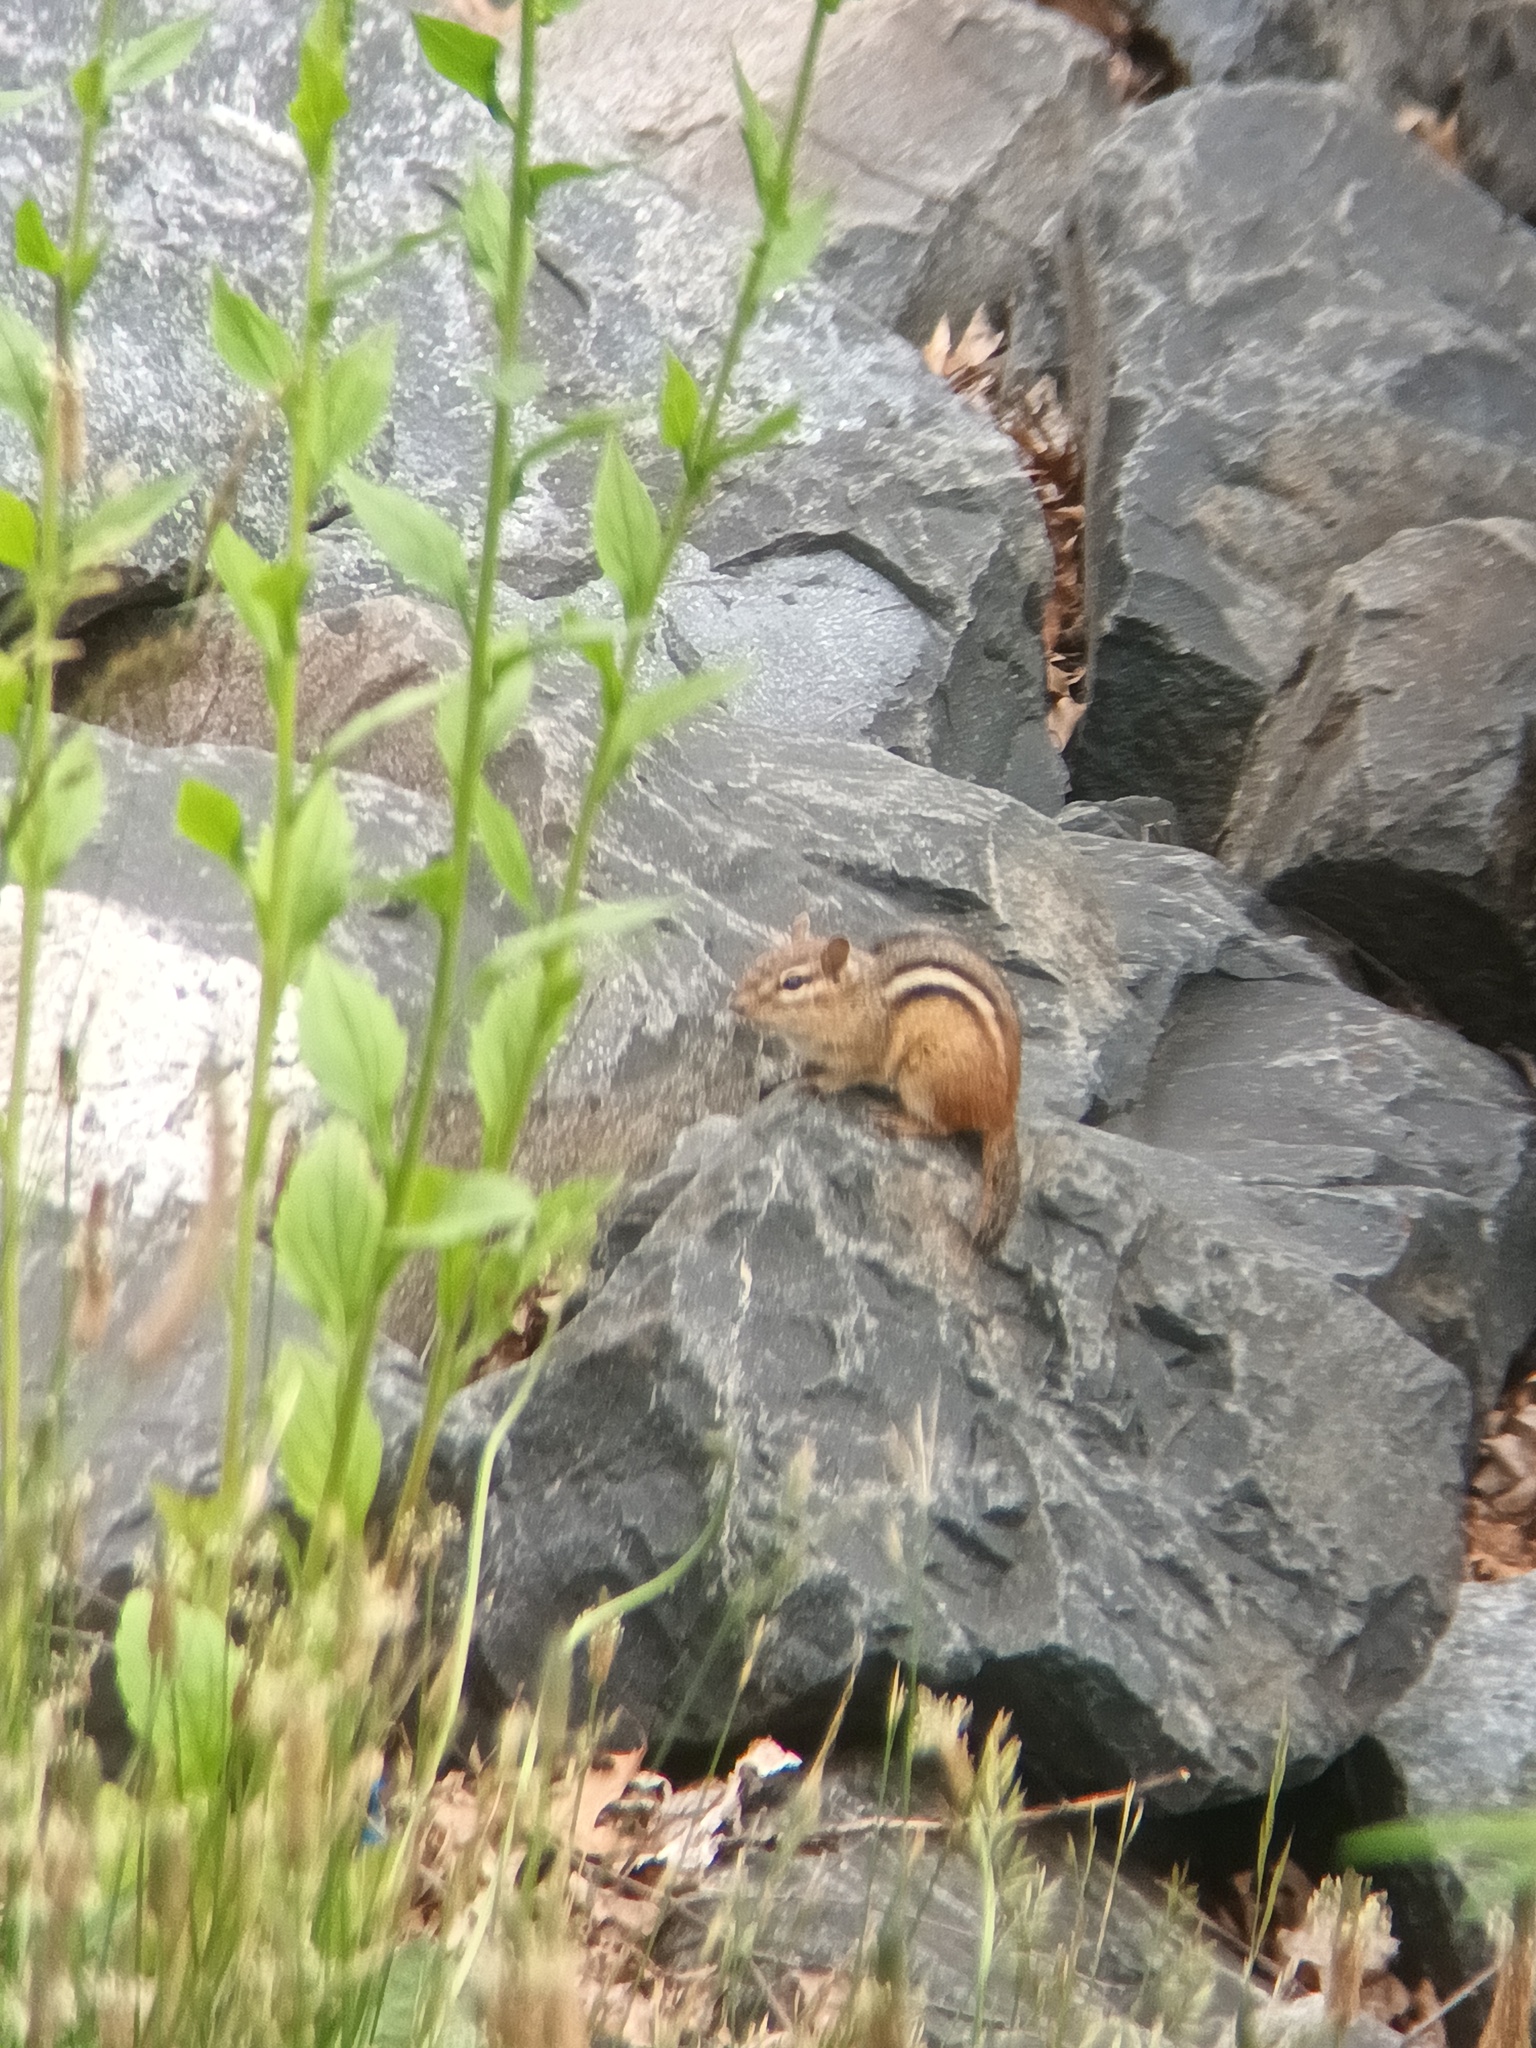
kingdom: Animalia
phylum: Chordata
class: Mammalia
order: Rodentia
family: Sciuridae
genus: Tamias
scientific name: Tamias striatus
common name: Eastern chipmunk
